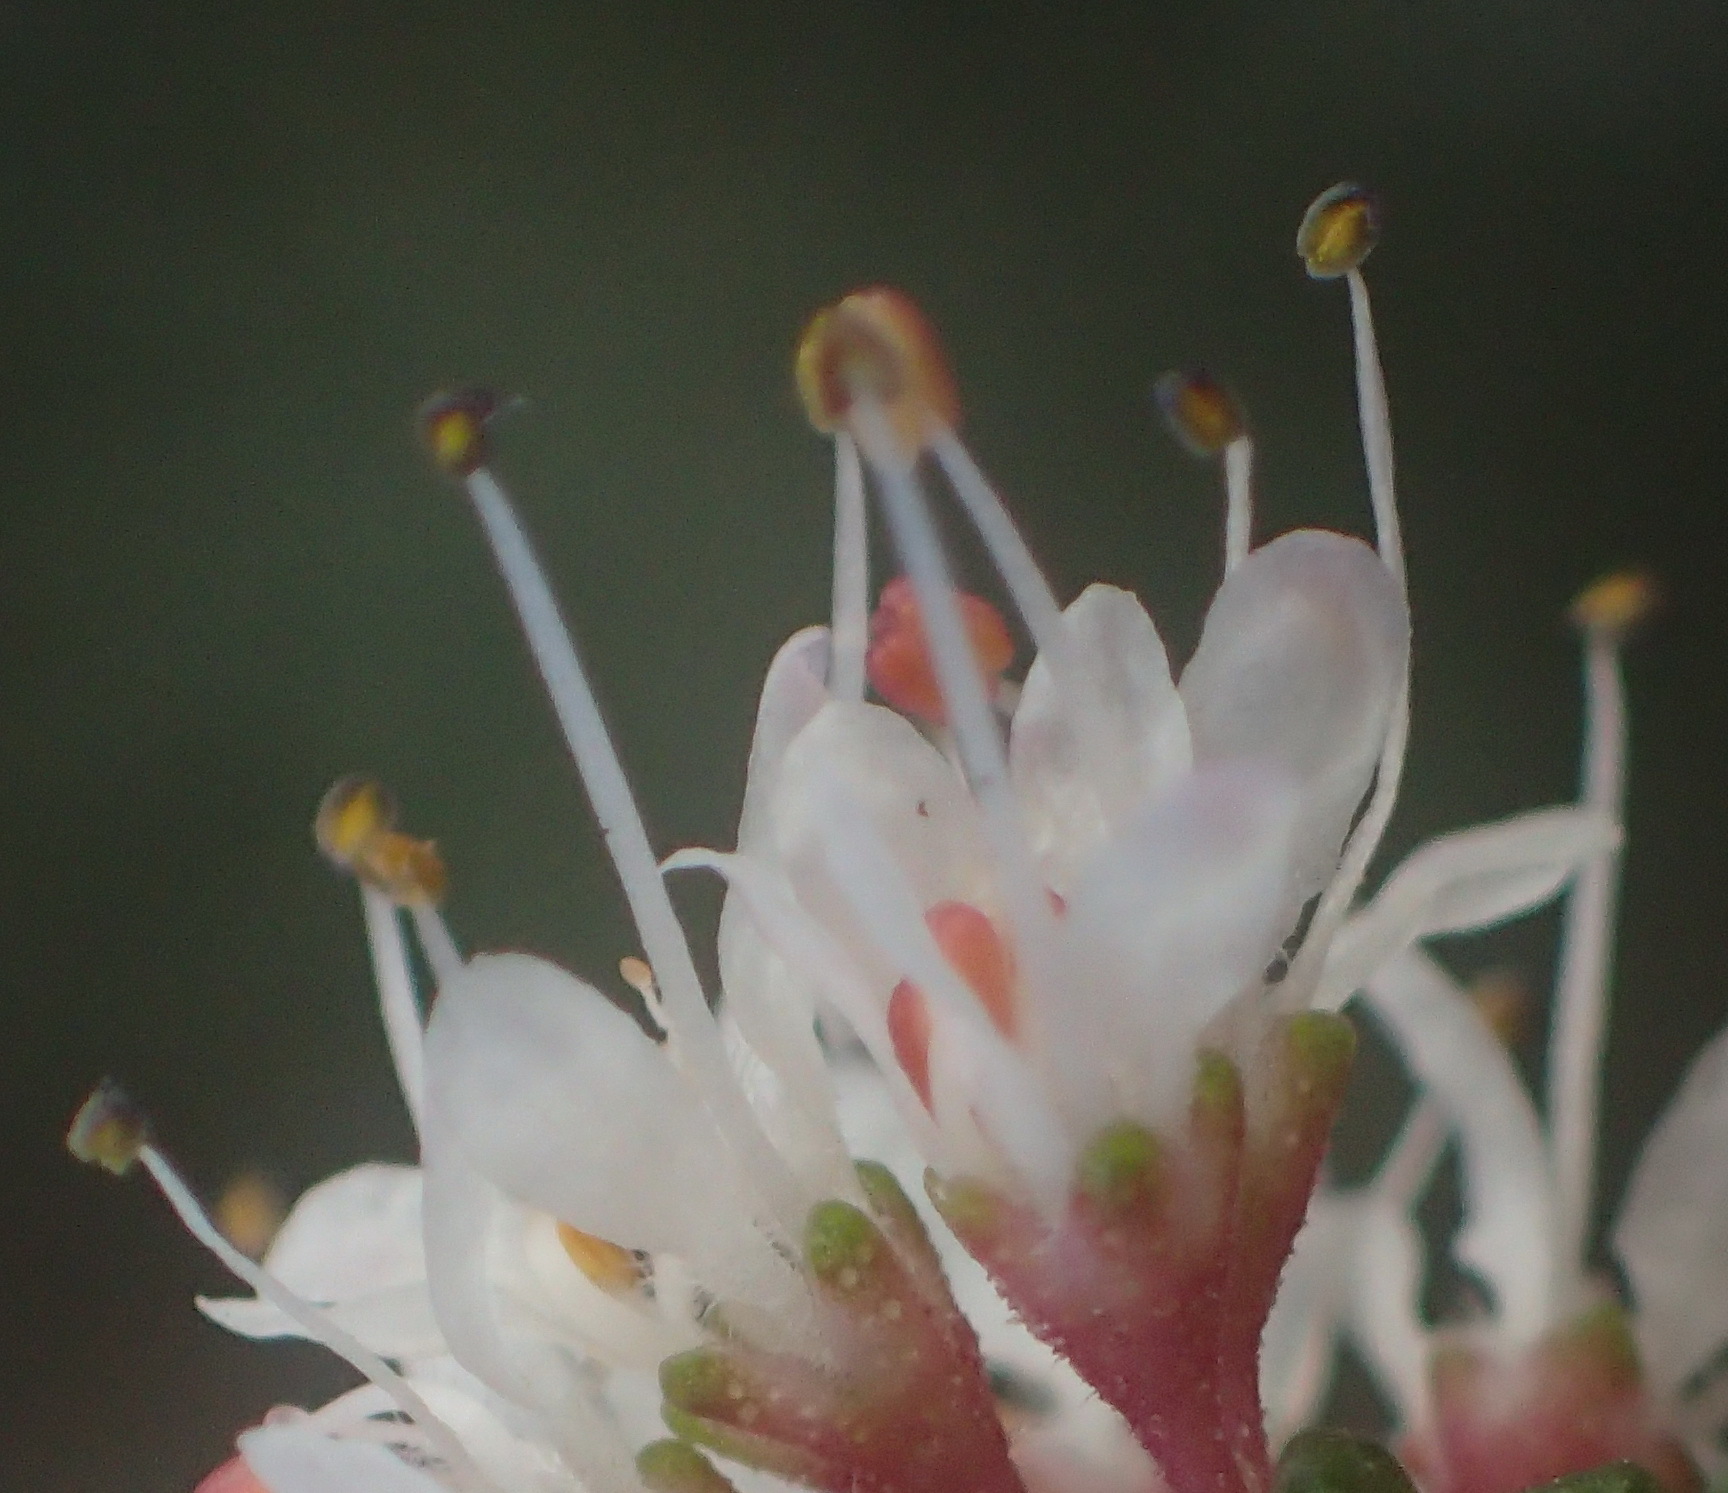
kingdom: Plantae
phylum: Tracheophyta
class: Magnoliopsida
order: Sapindales
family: Rutaceae
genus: Agathosma
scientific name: Agathosma muirii
